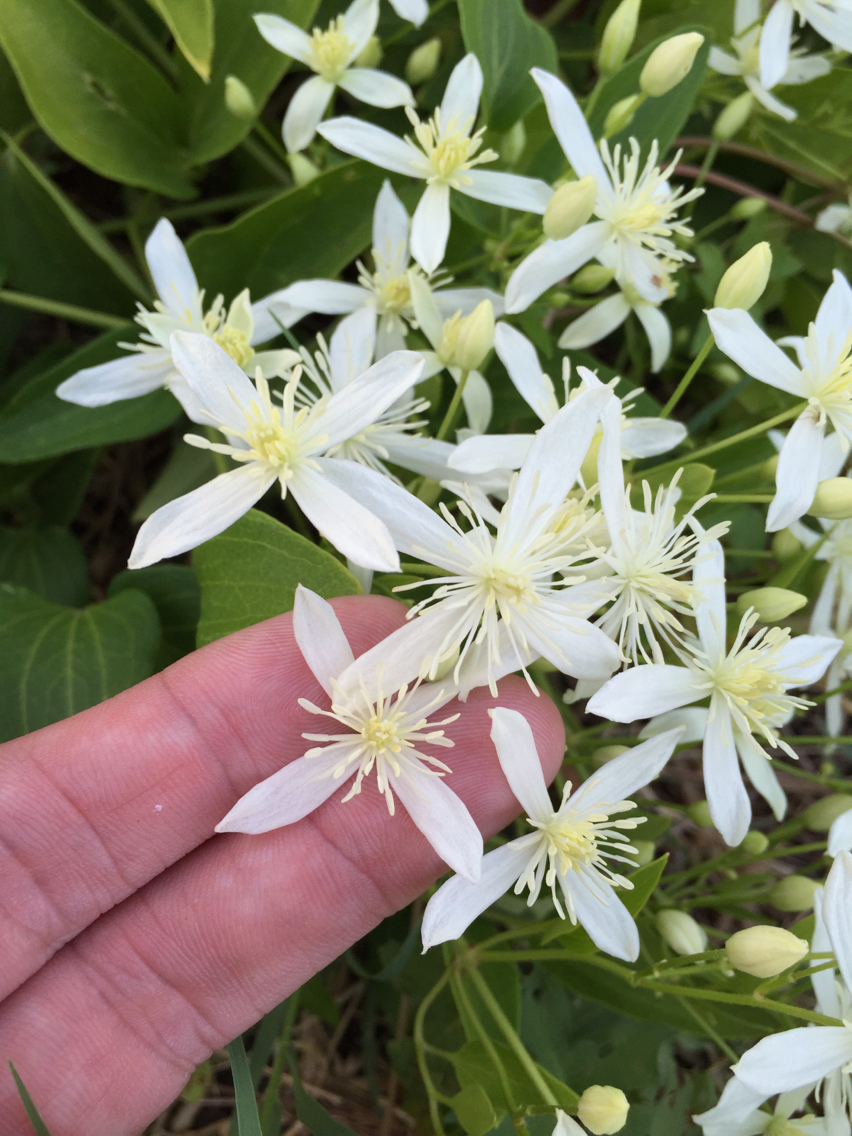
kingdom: Plantae
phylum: Tracheophyta
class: Magnoliopsida
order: Ranunculales
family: Ranunculaceae
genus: Clematis
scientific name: Clematis terniflora
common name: Sweet autumn clematis
